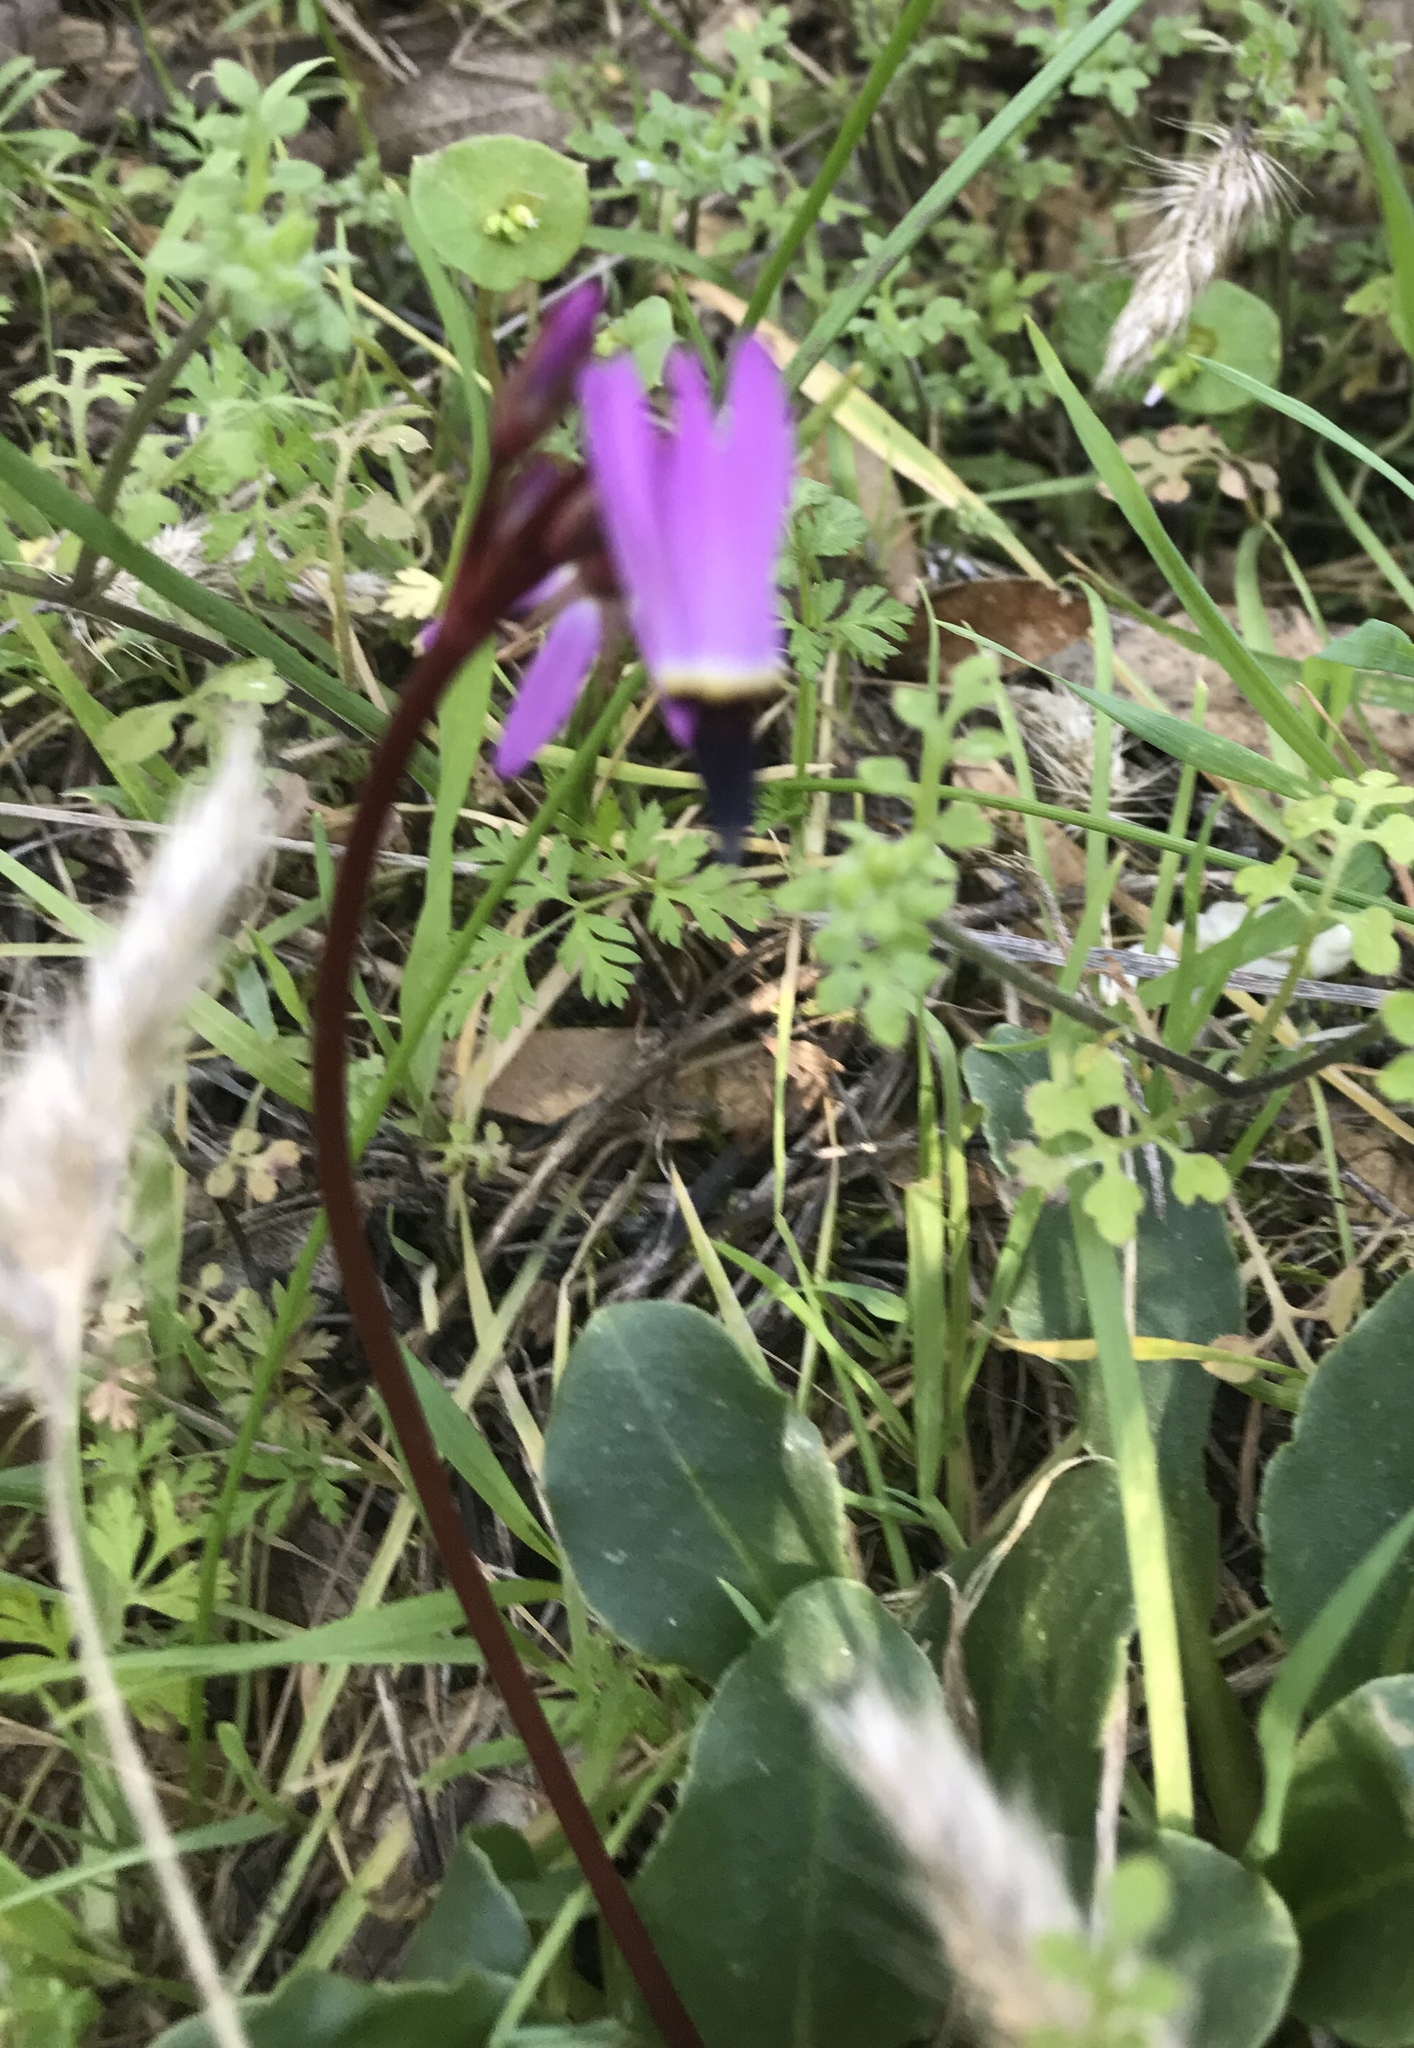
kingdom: Plantae
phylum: Tracheophyta
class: Magnoliopsida
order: Ericales
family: Primulaceae
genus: Dodecatheon
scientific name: Dodecatheon hendersonii
